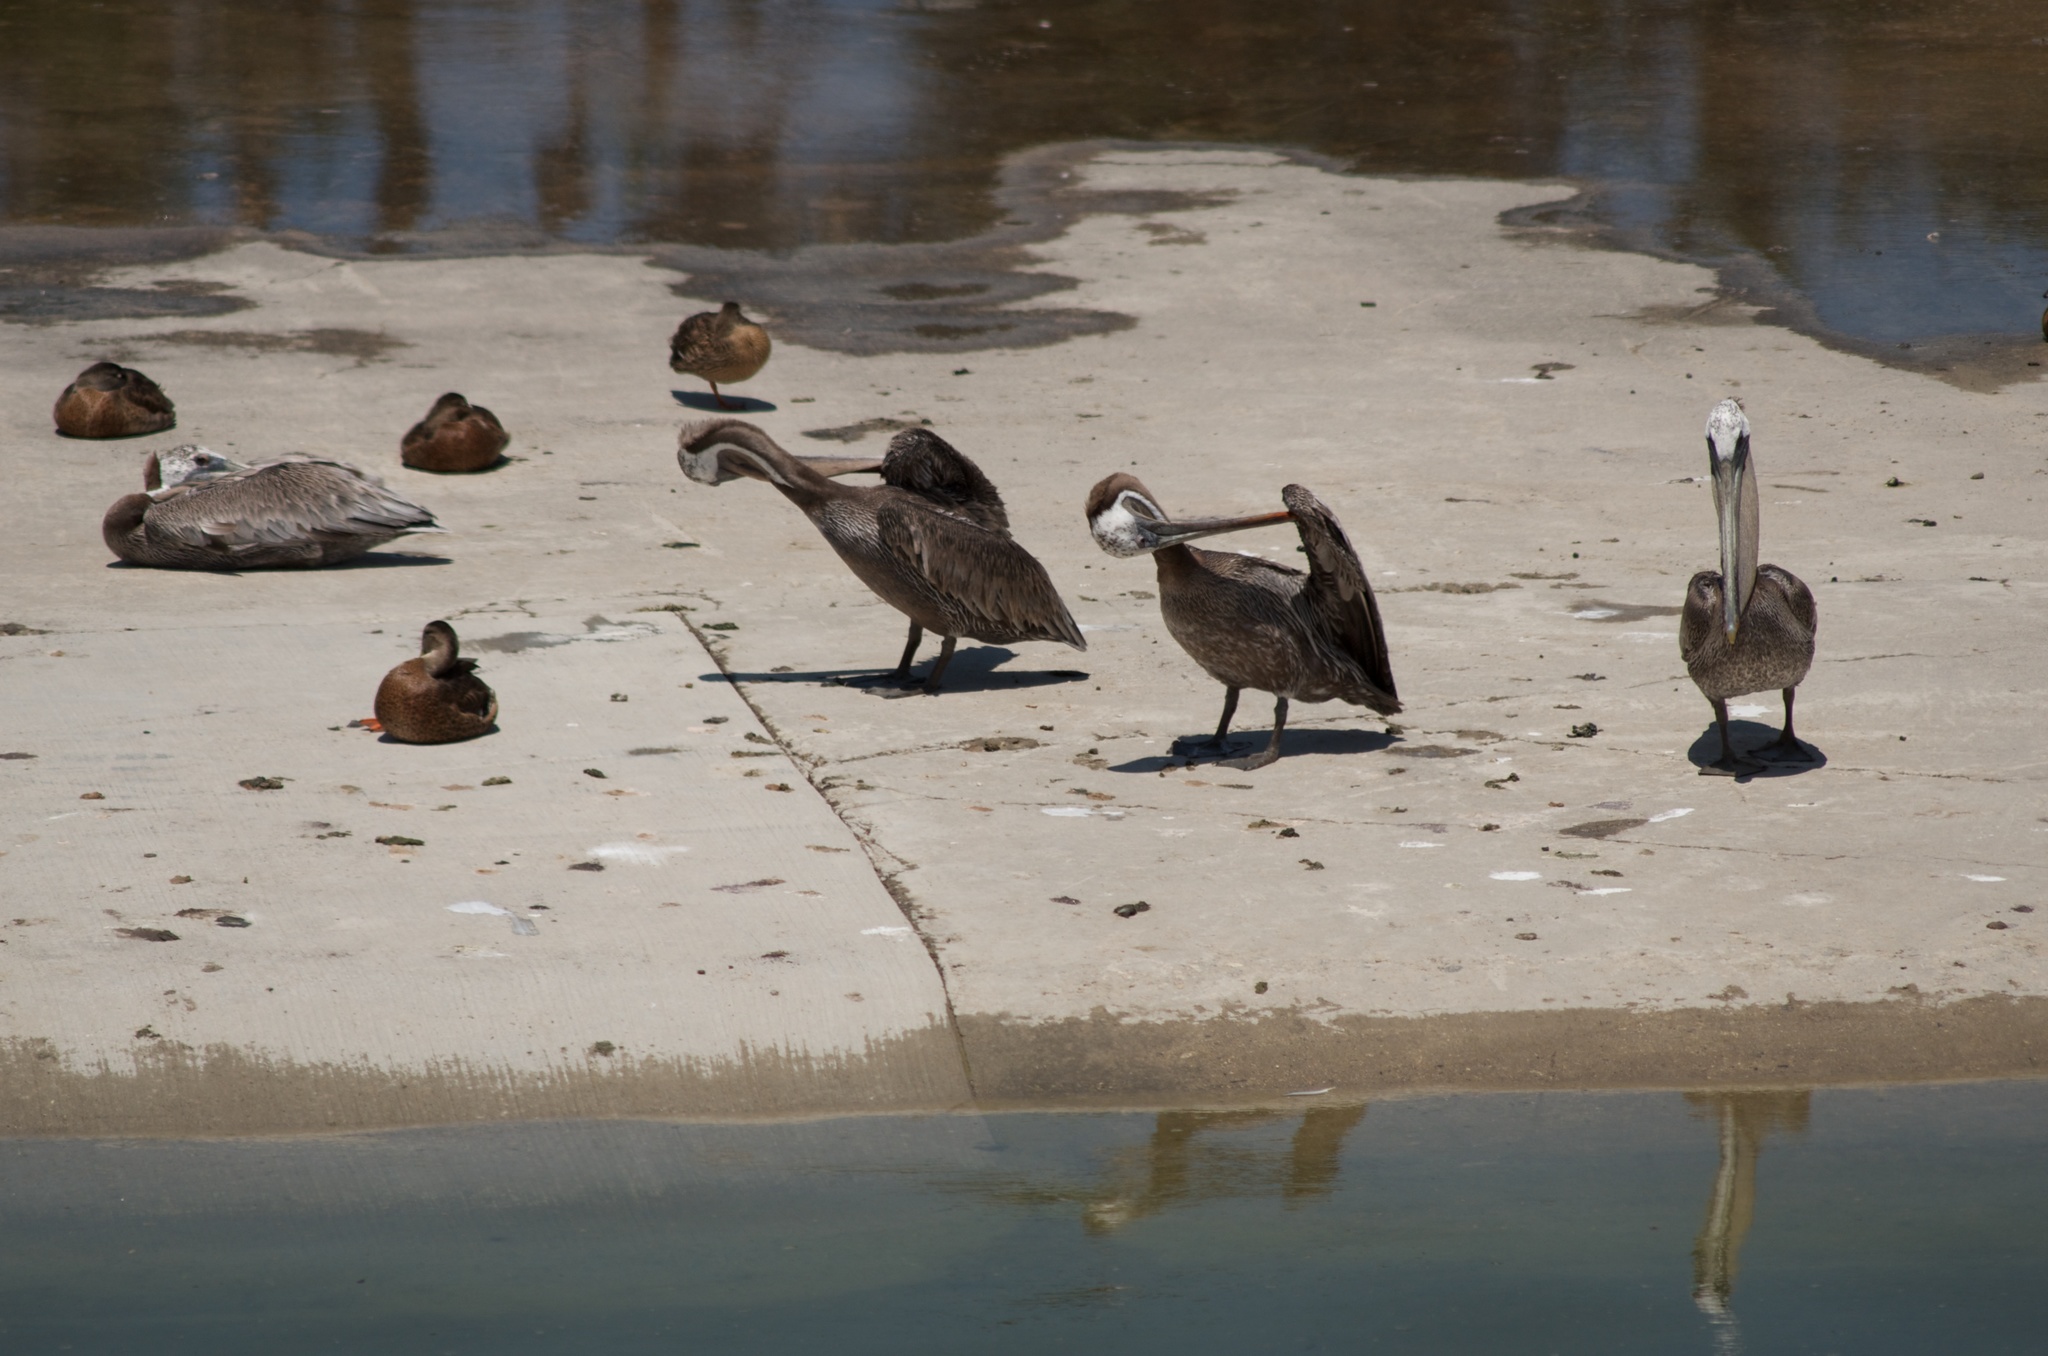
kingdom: Animalia
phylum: Chordata
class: Aves
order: Pelecaniformes
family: Pelecanidae
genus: Pelecanus
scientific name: Pelecanus occidentalis
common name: Brown pelican
